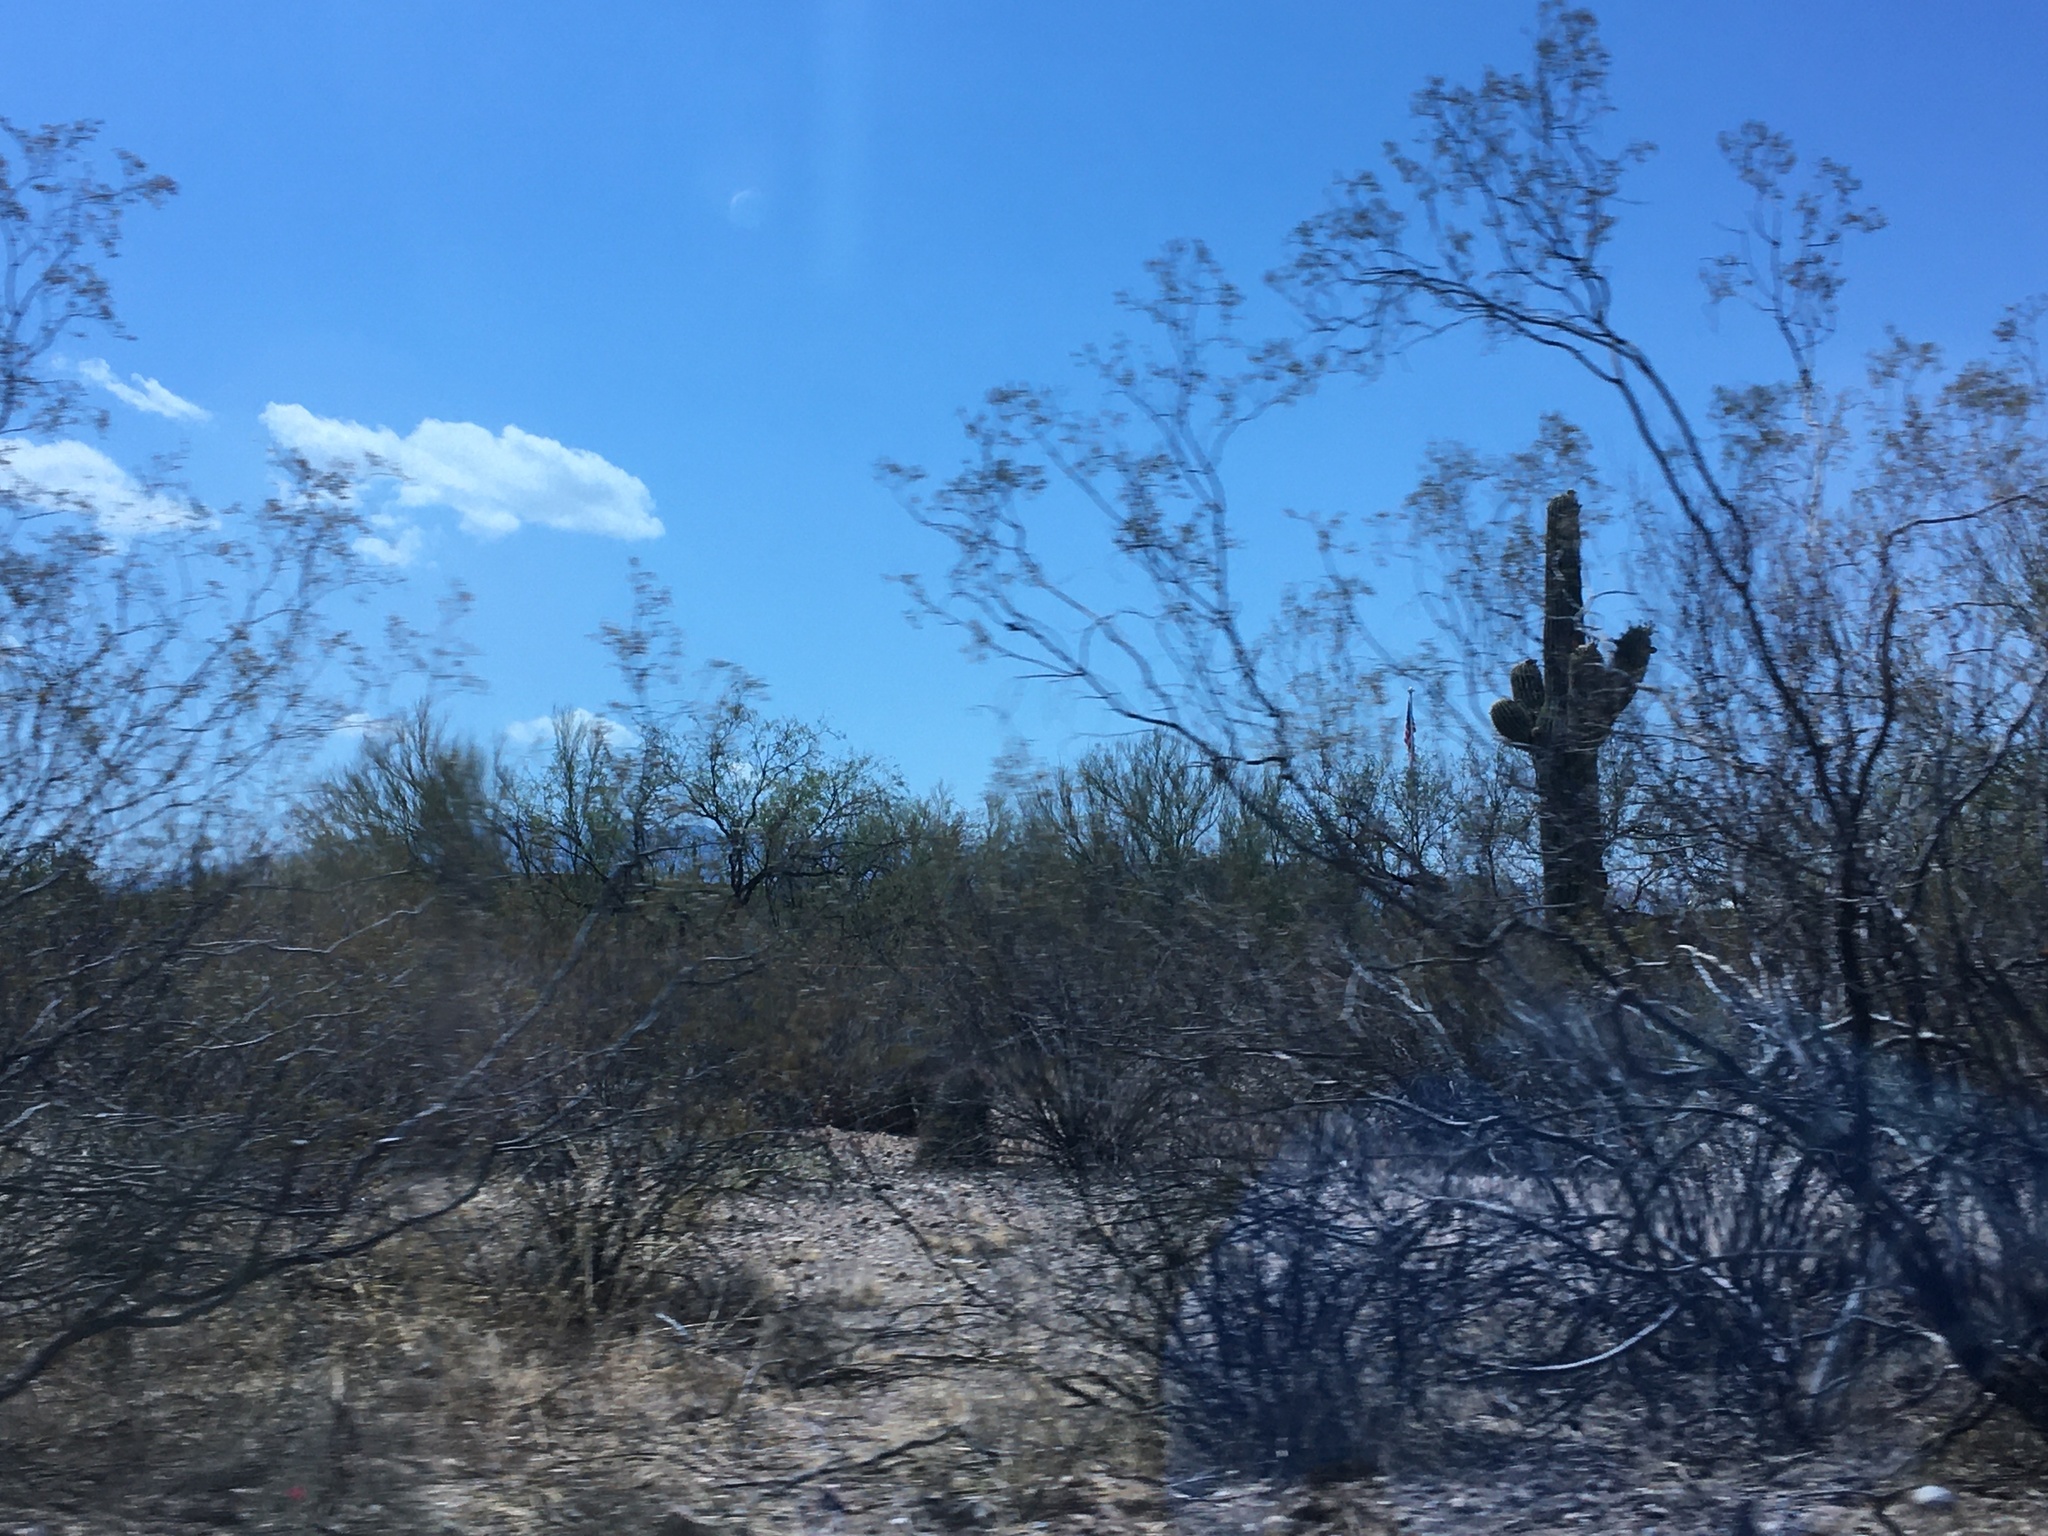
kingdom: Plantae
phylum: Tracheophyta
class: Magnoliopsida
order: Caryophyllales
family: Cactaceae
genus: Carnegiea
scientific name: Carnegiea gigantea
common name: Saguaro
